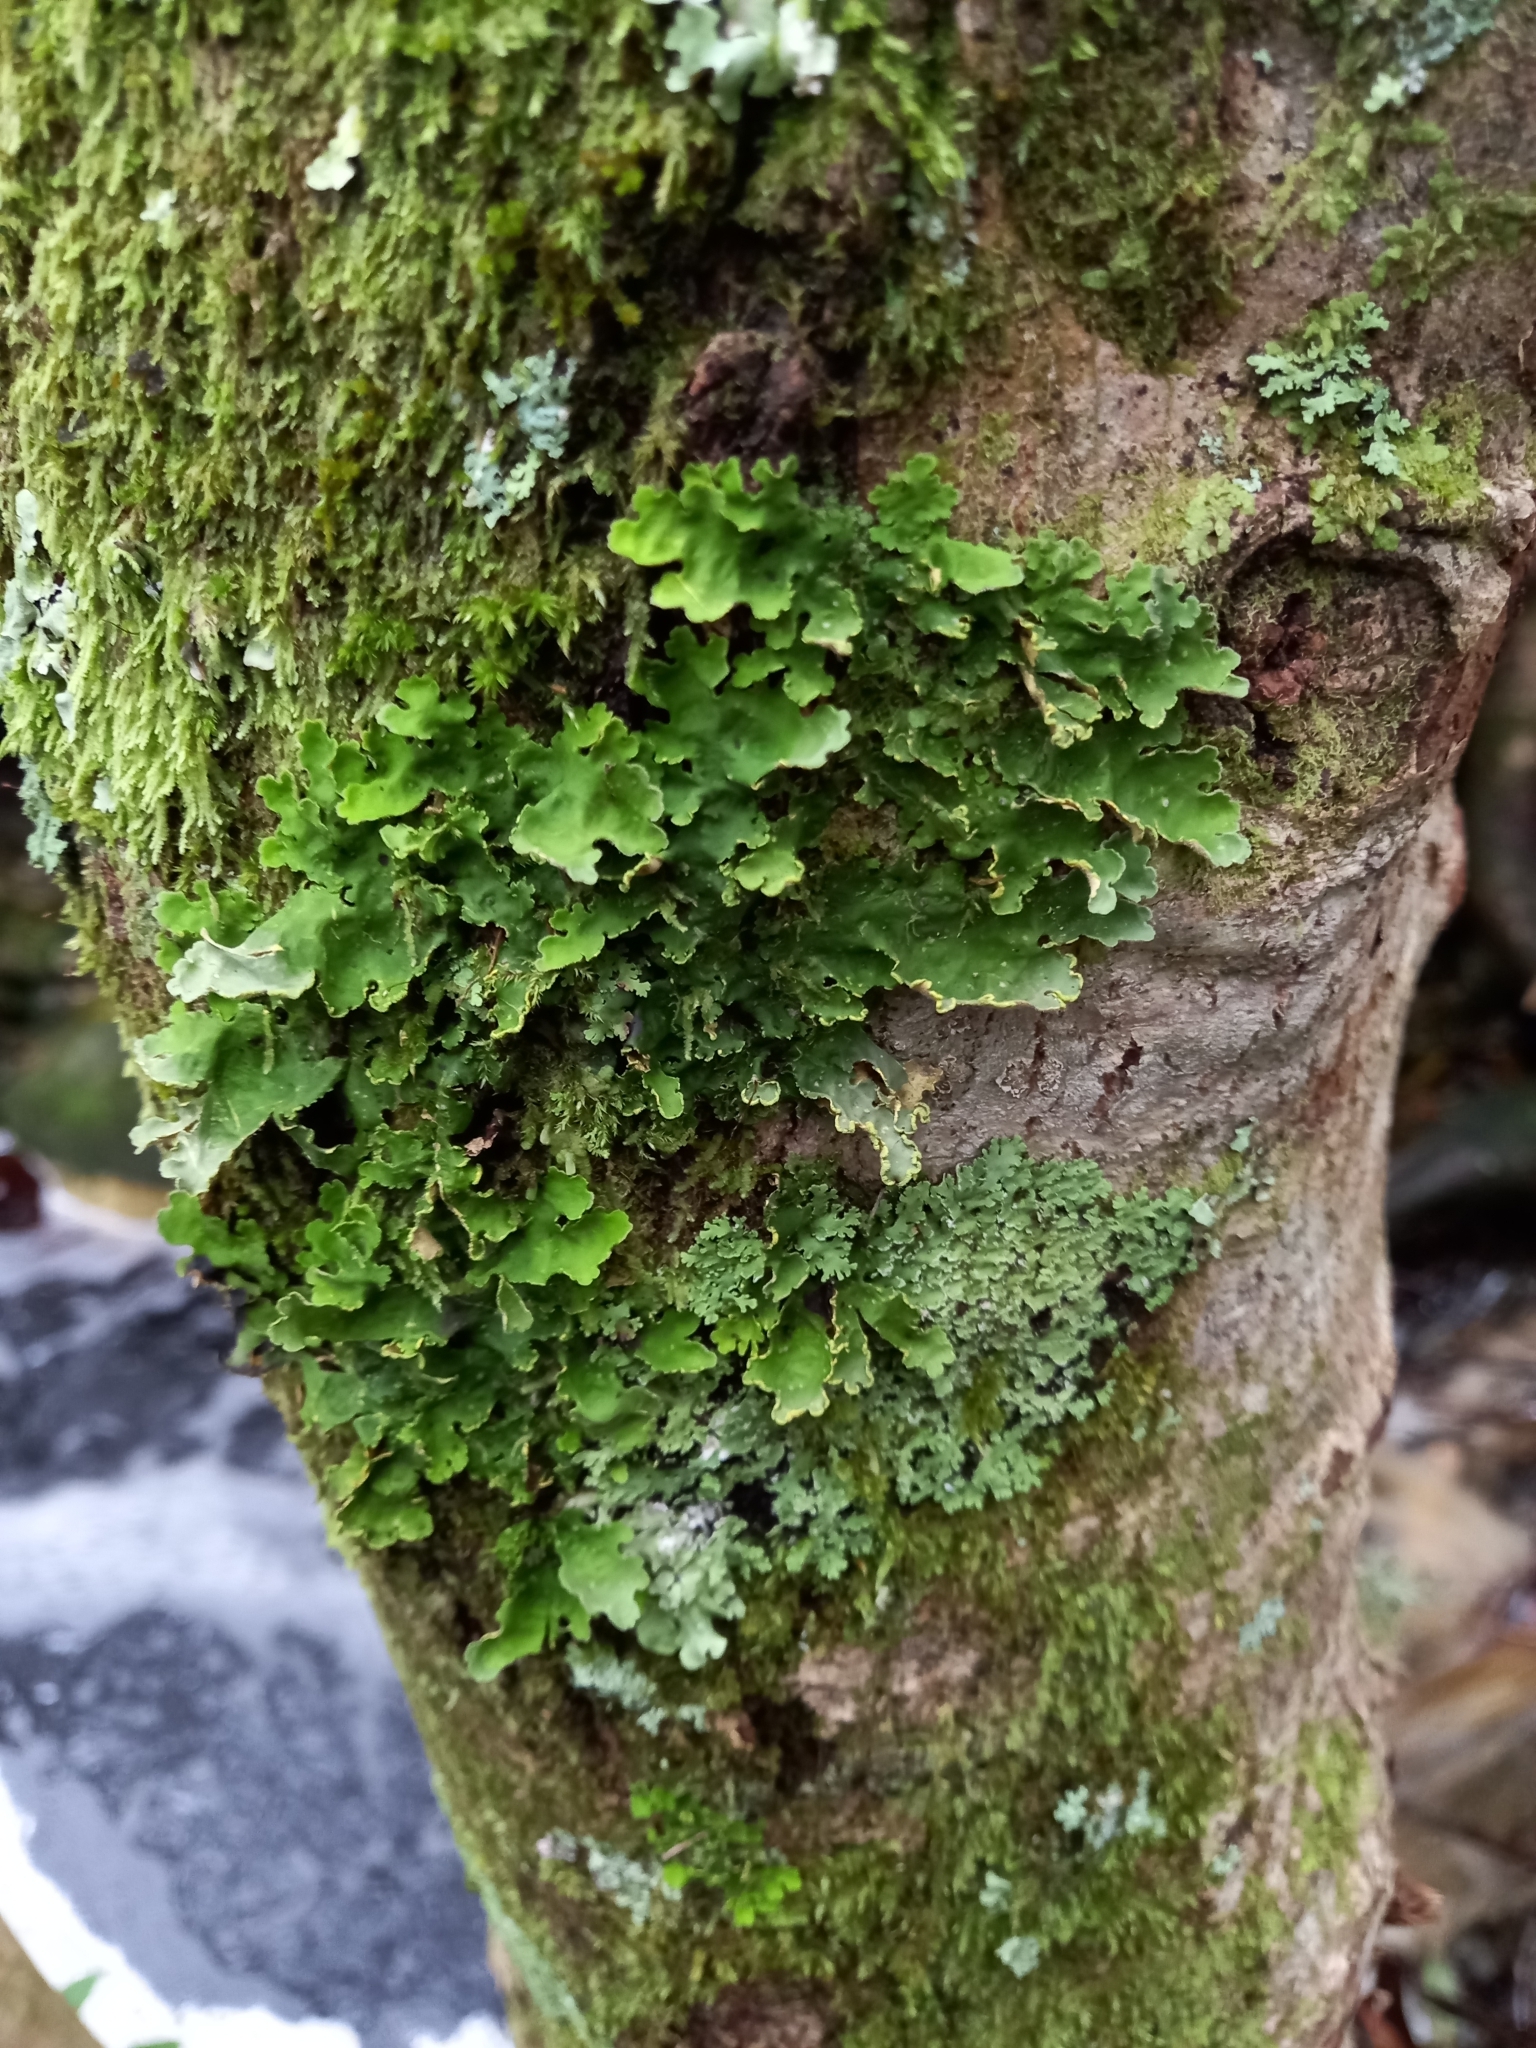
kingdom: Fungi
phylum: Ascomycota
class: Lecanoromycetes
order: Peltigerales
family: Lobariaceae
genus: Pseudocyphellaria
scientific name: Pseudocyphellaria aurata
